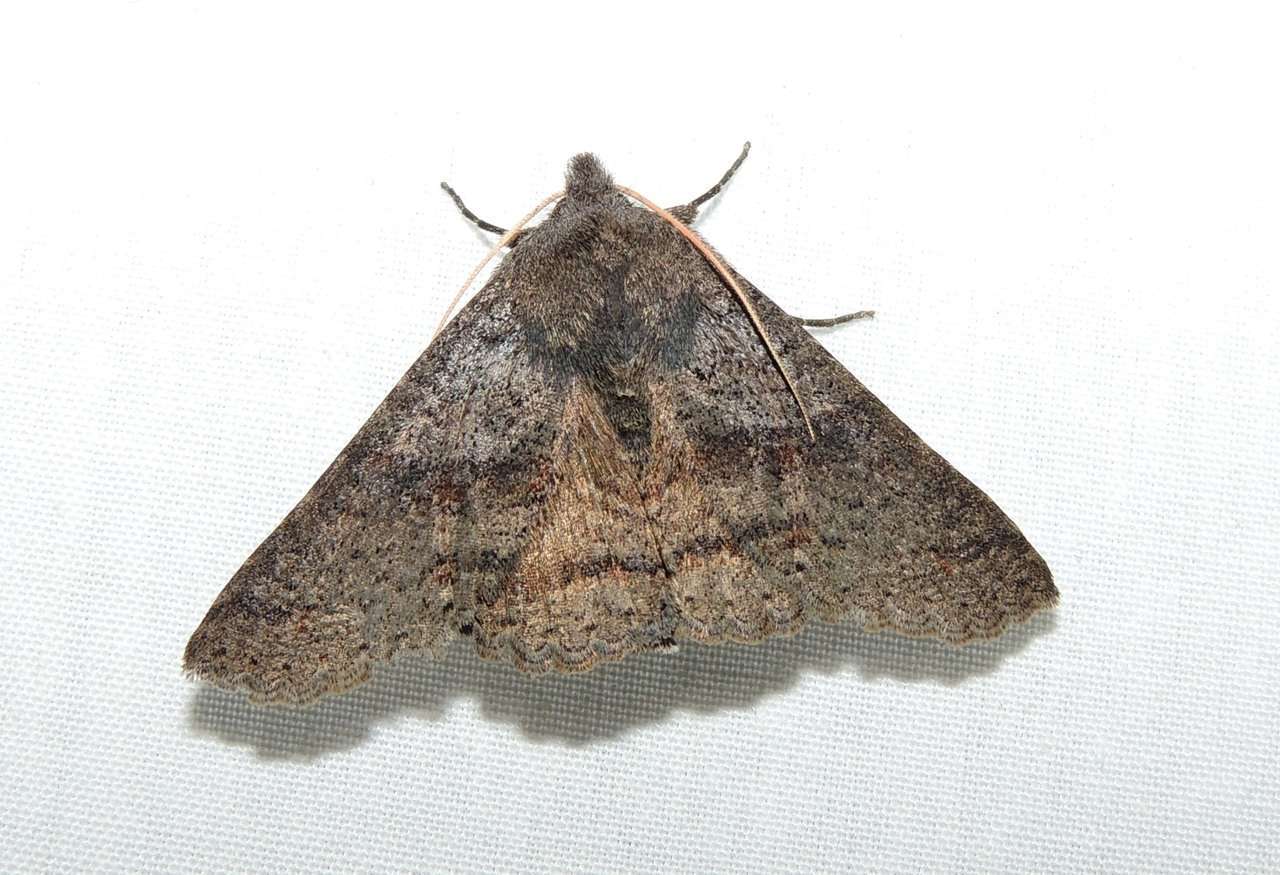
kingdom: Animalia
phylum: Arthropoda
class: Insecta
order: Lepidoptera
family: Erebidae
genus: Praxis
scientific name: Praxis pandesma
